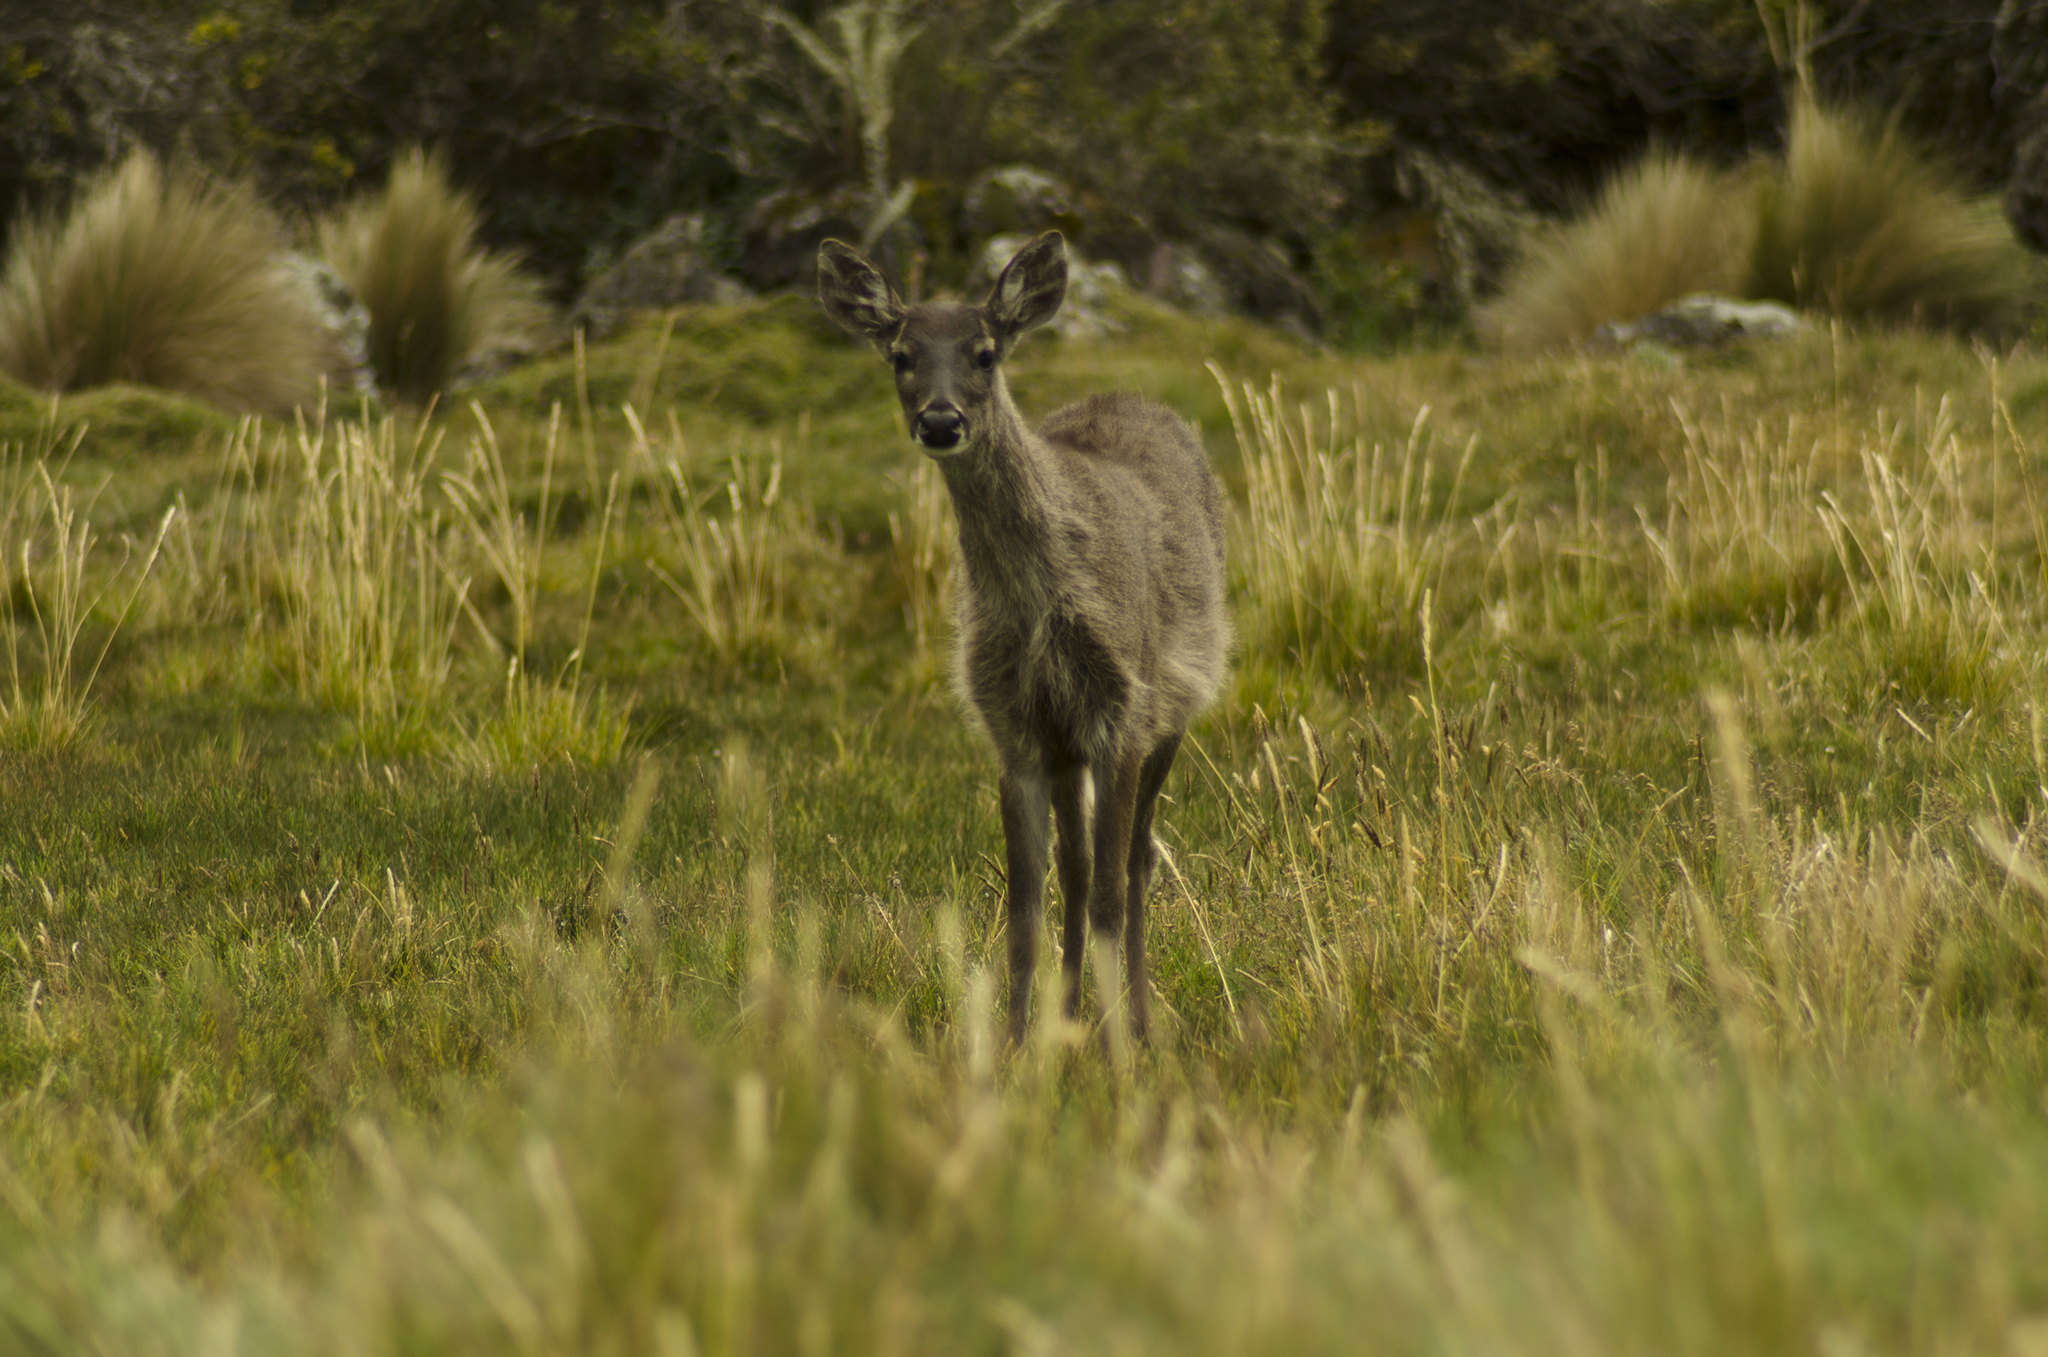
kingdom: Animalia
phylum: Chordata
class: Mammalia
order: Artiodactyla
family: Cervidae
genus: Odocoileus
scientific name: Odocoileus virginianus
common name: White-tailed deer
